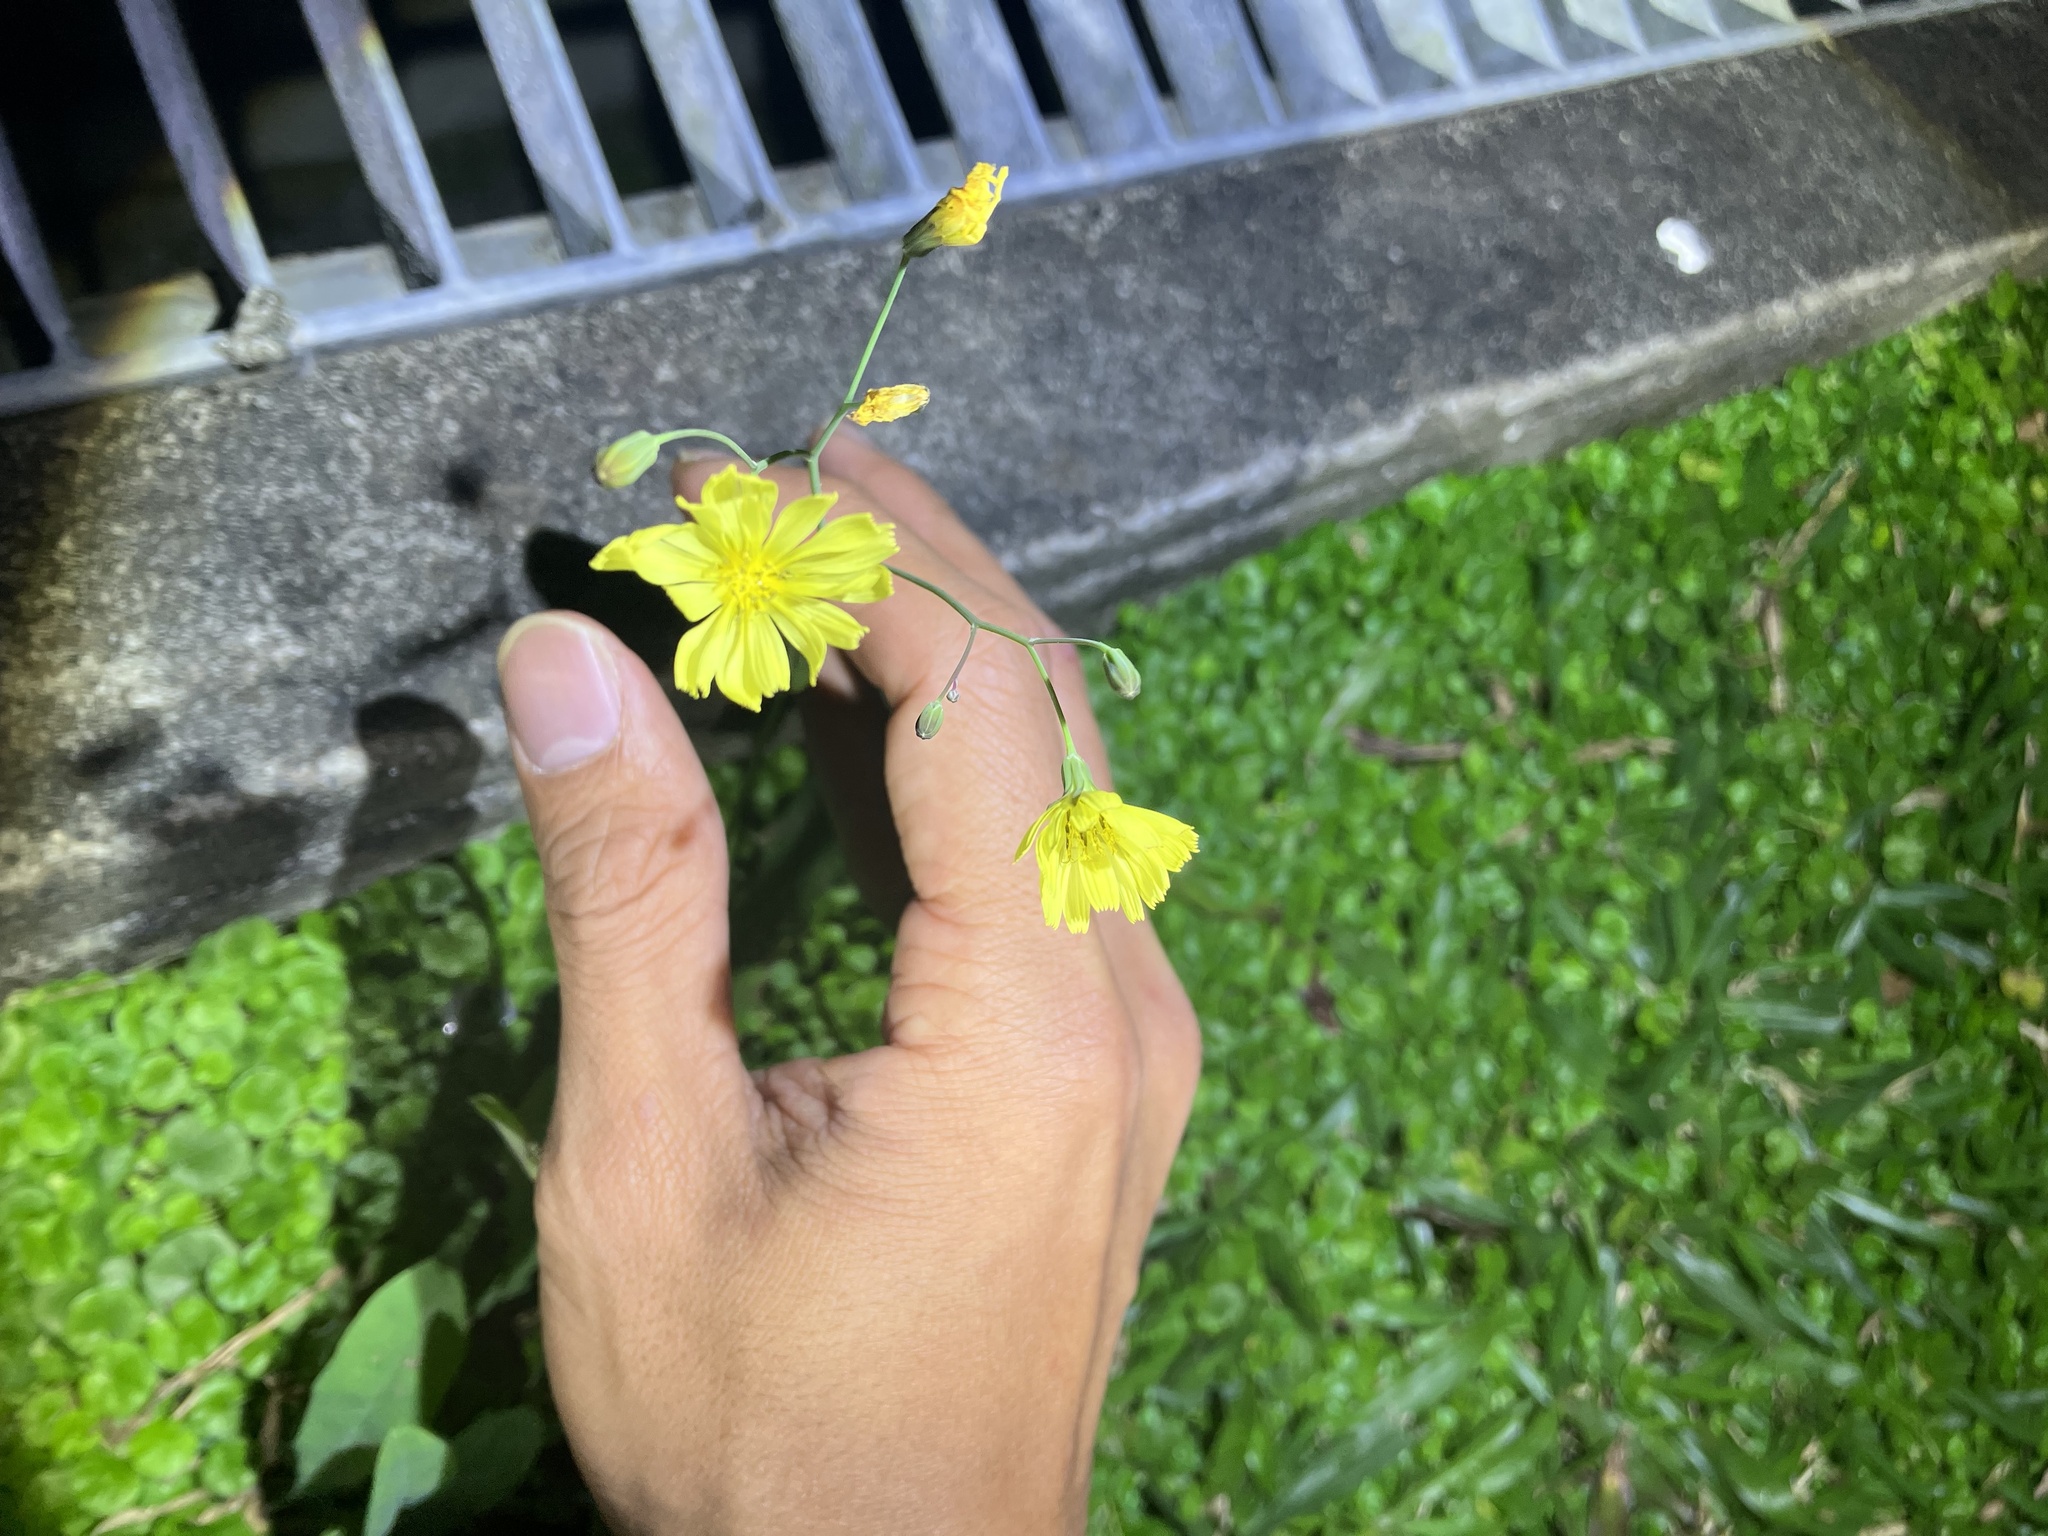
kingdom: Plantae
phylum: Tracheophyta
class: Magnoliopsida
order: Asterales
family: Asteraceae
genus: Ixeris
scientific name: Ixeris chinensis
